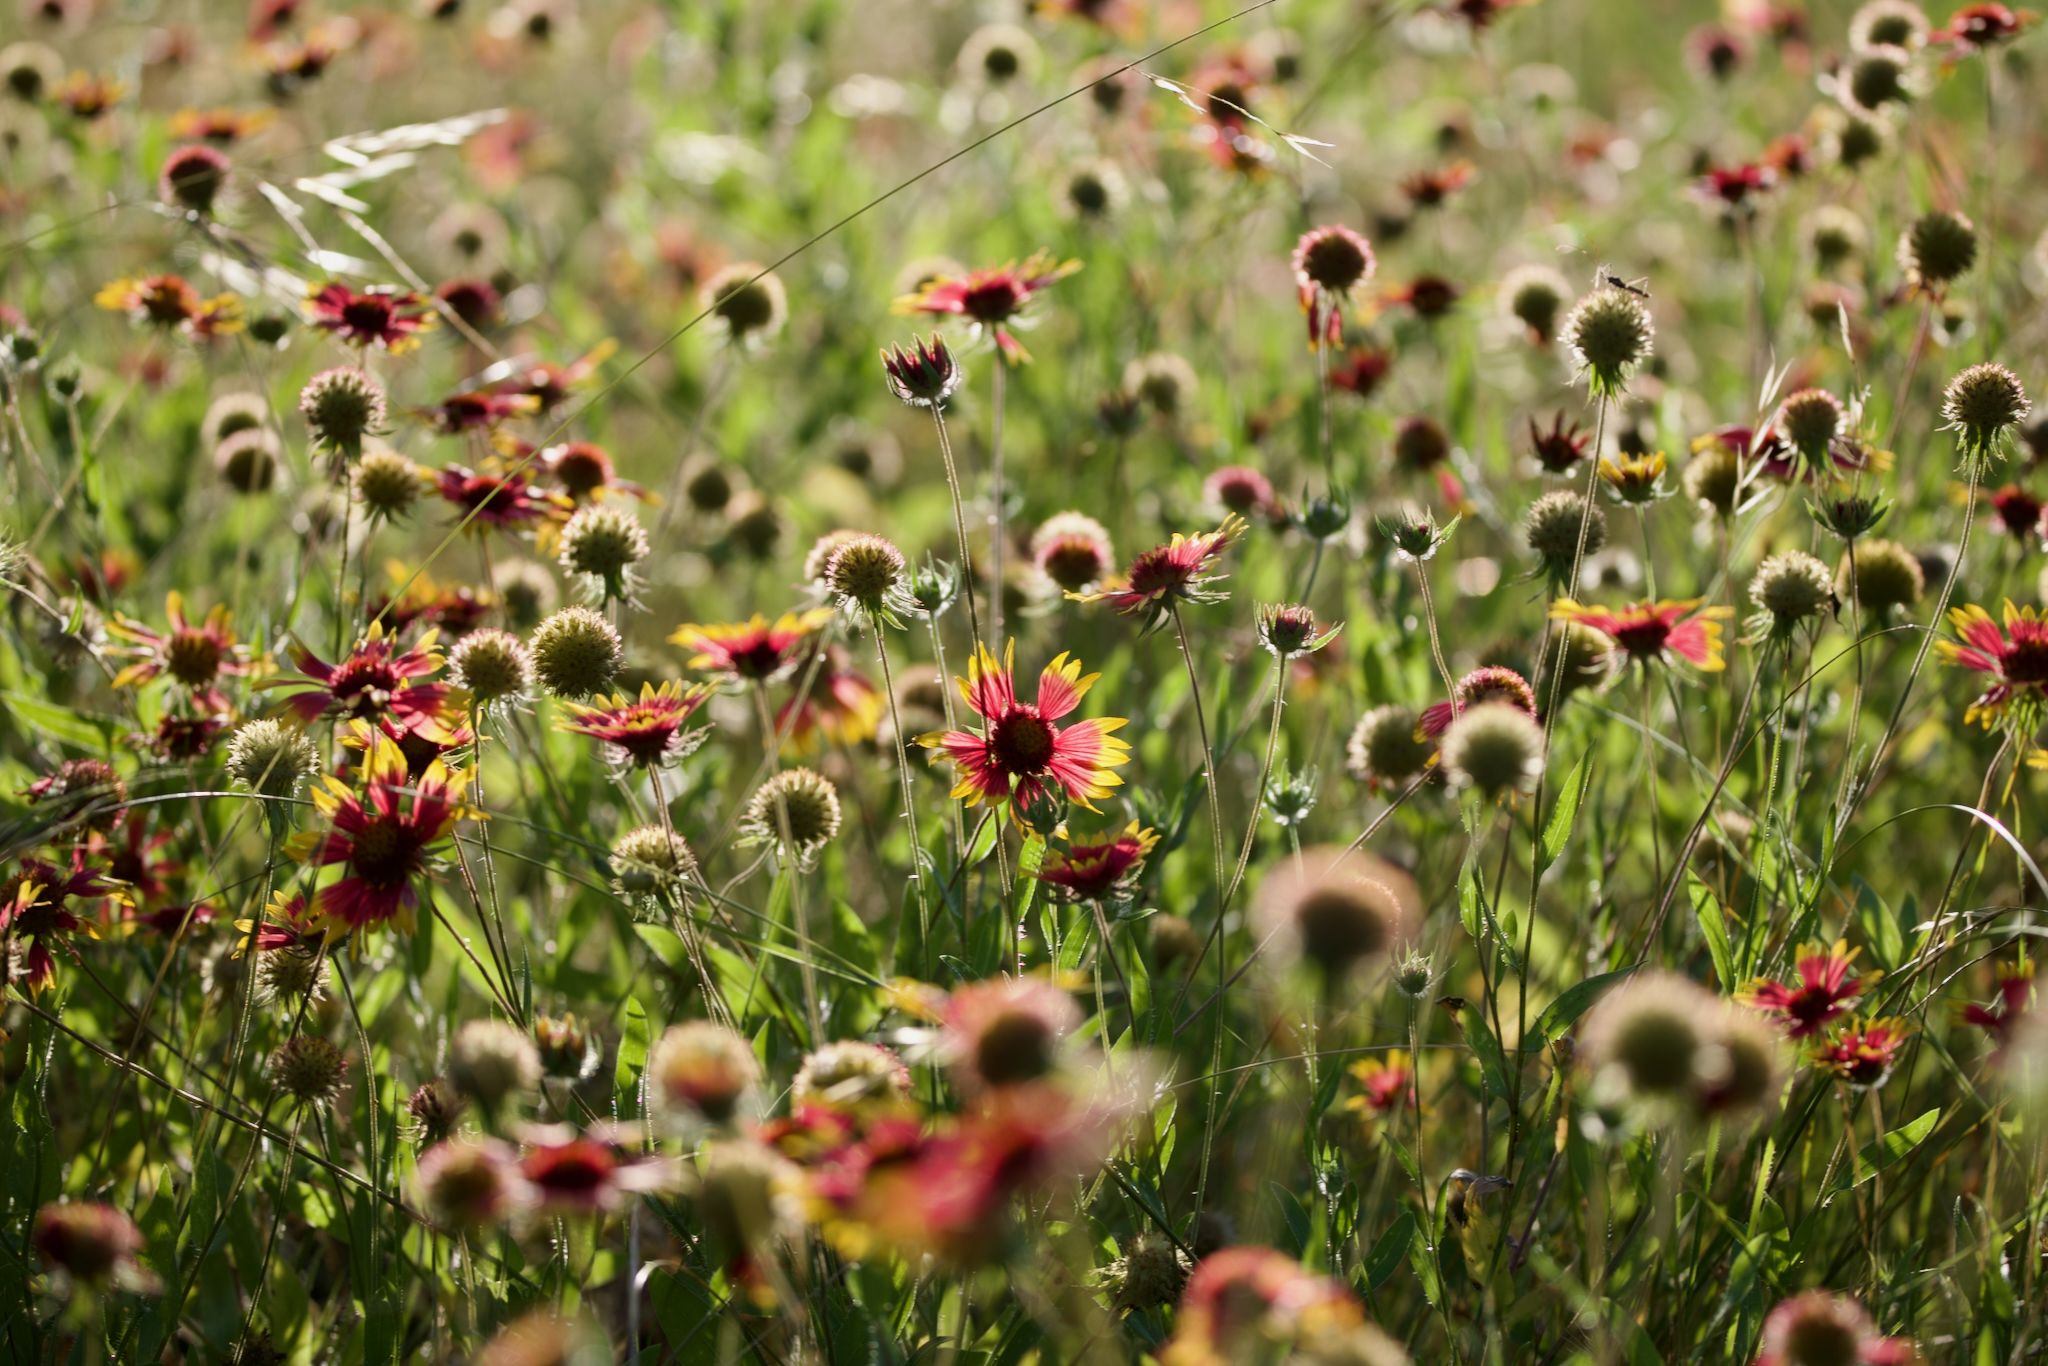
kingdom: Plantae
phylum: Tracheophyta
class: Magnoliopsida
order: Asterales
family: Asteraceae
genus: Gaillardia
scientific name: Gaillardia pulchella
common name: Firewheel
